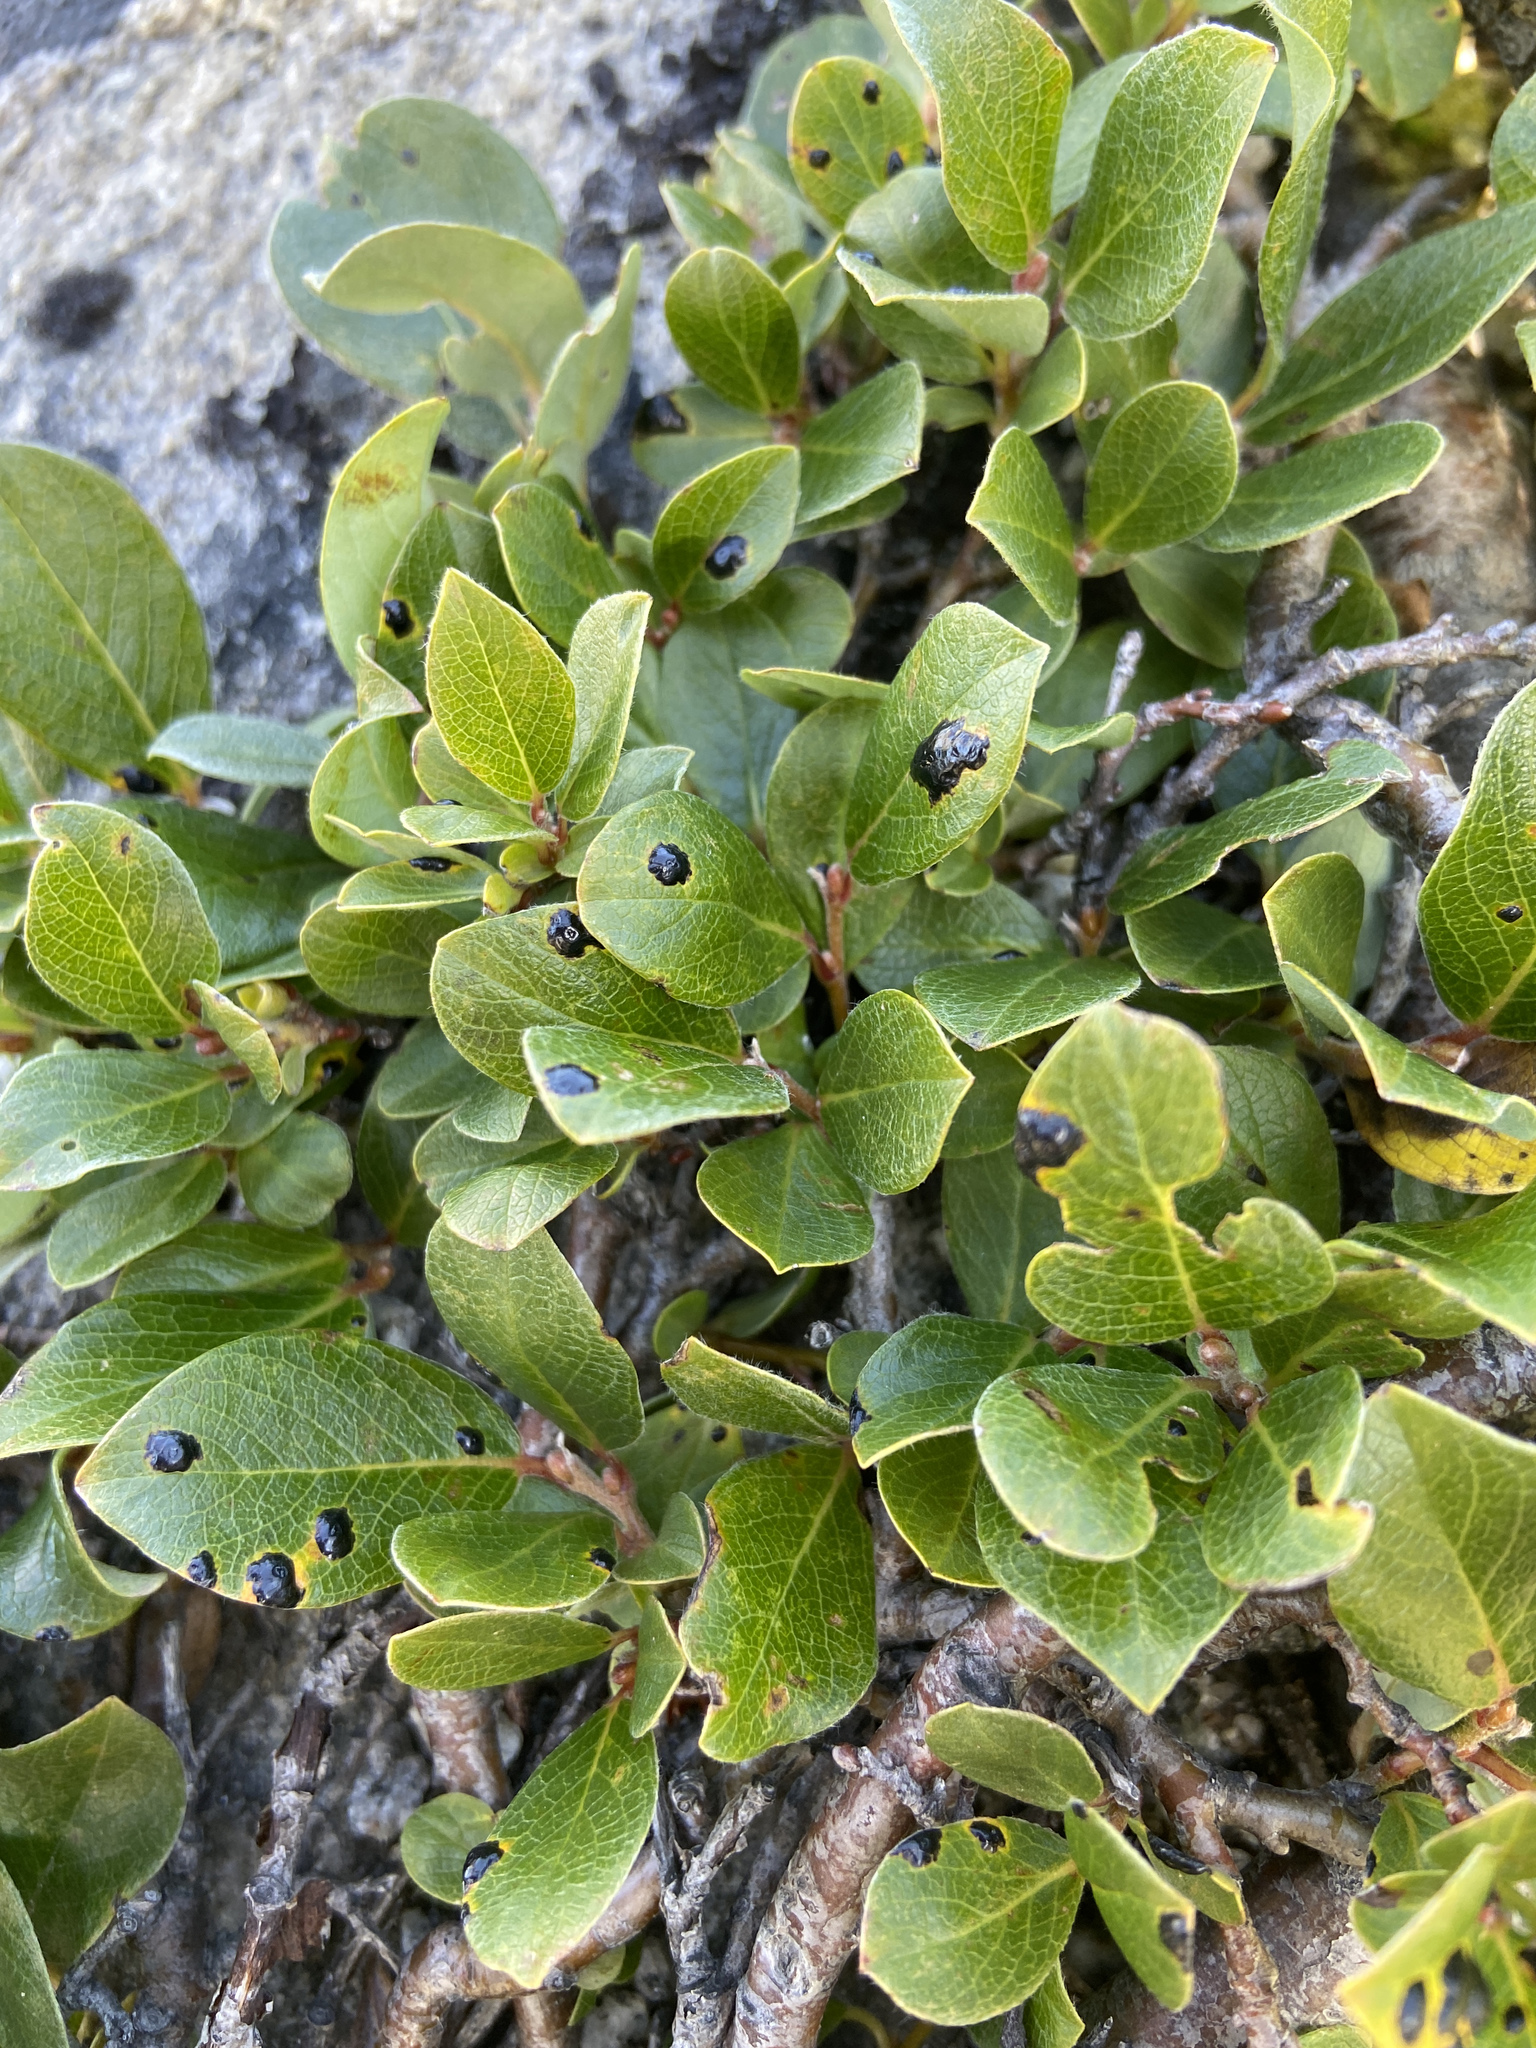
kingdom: Fungi
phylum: Ascomycota
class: Leotiomycetes
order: Rhytismatales
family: Rhytismataceae
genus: Rhytisma
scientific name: Rhytisma salicinum
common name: Willow tarspot
